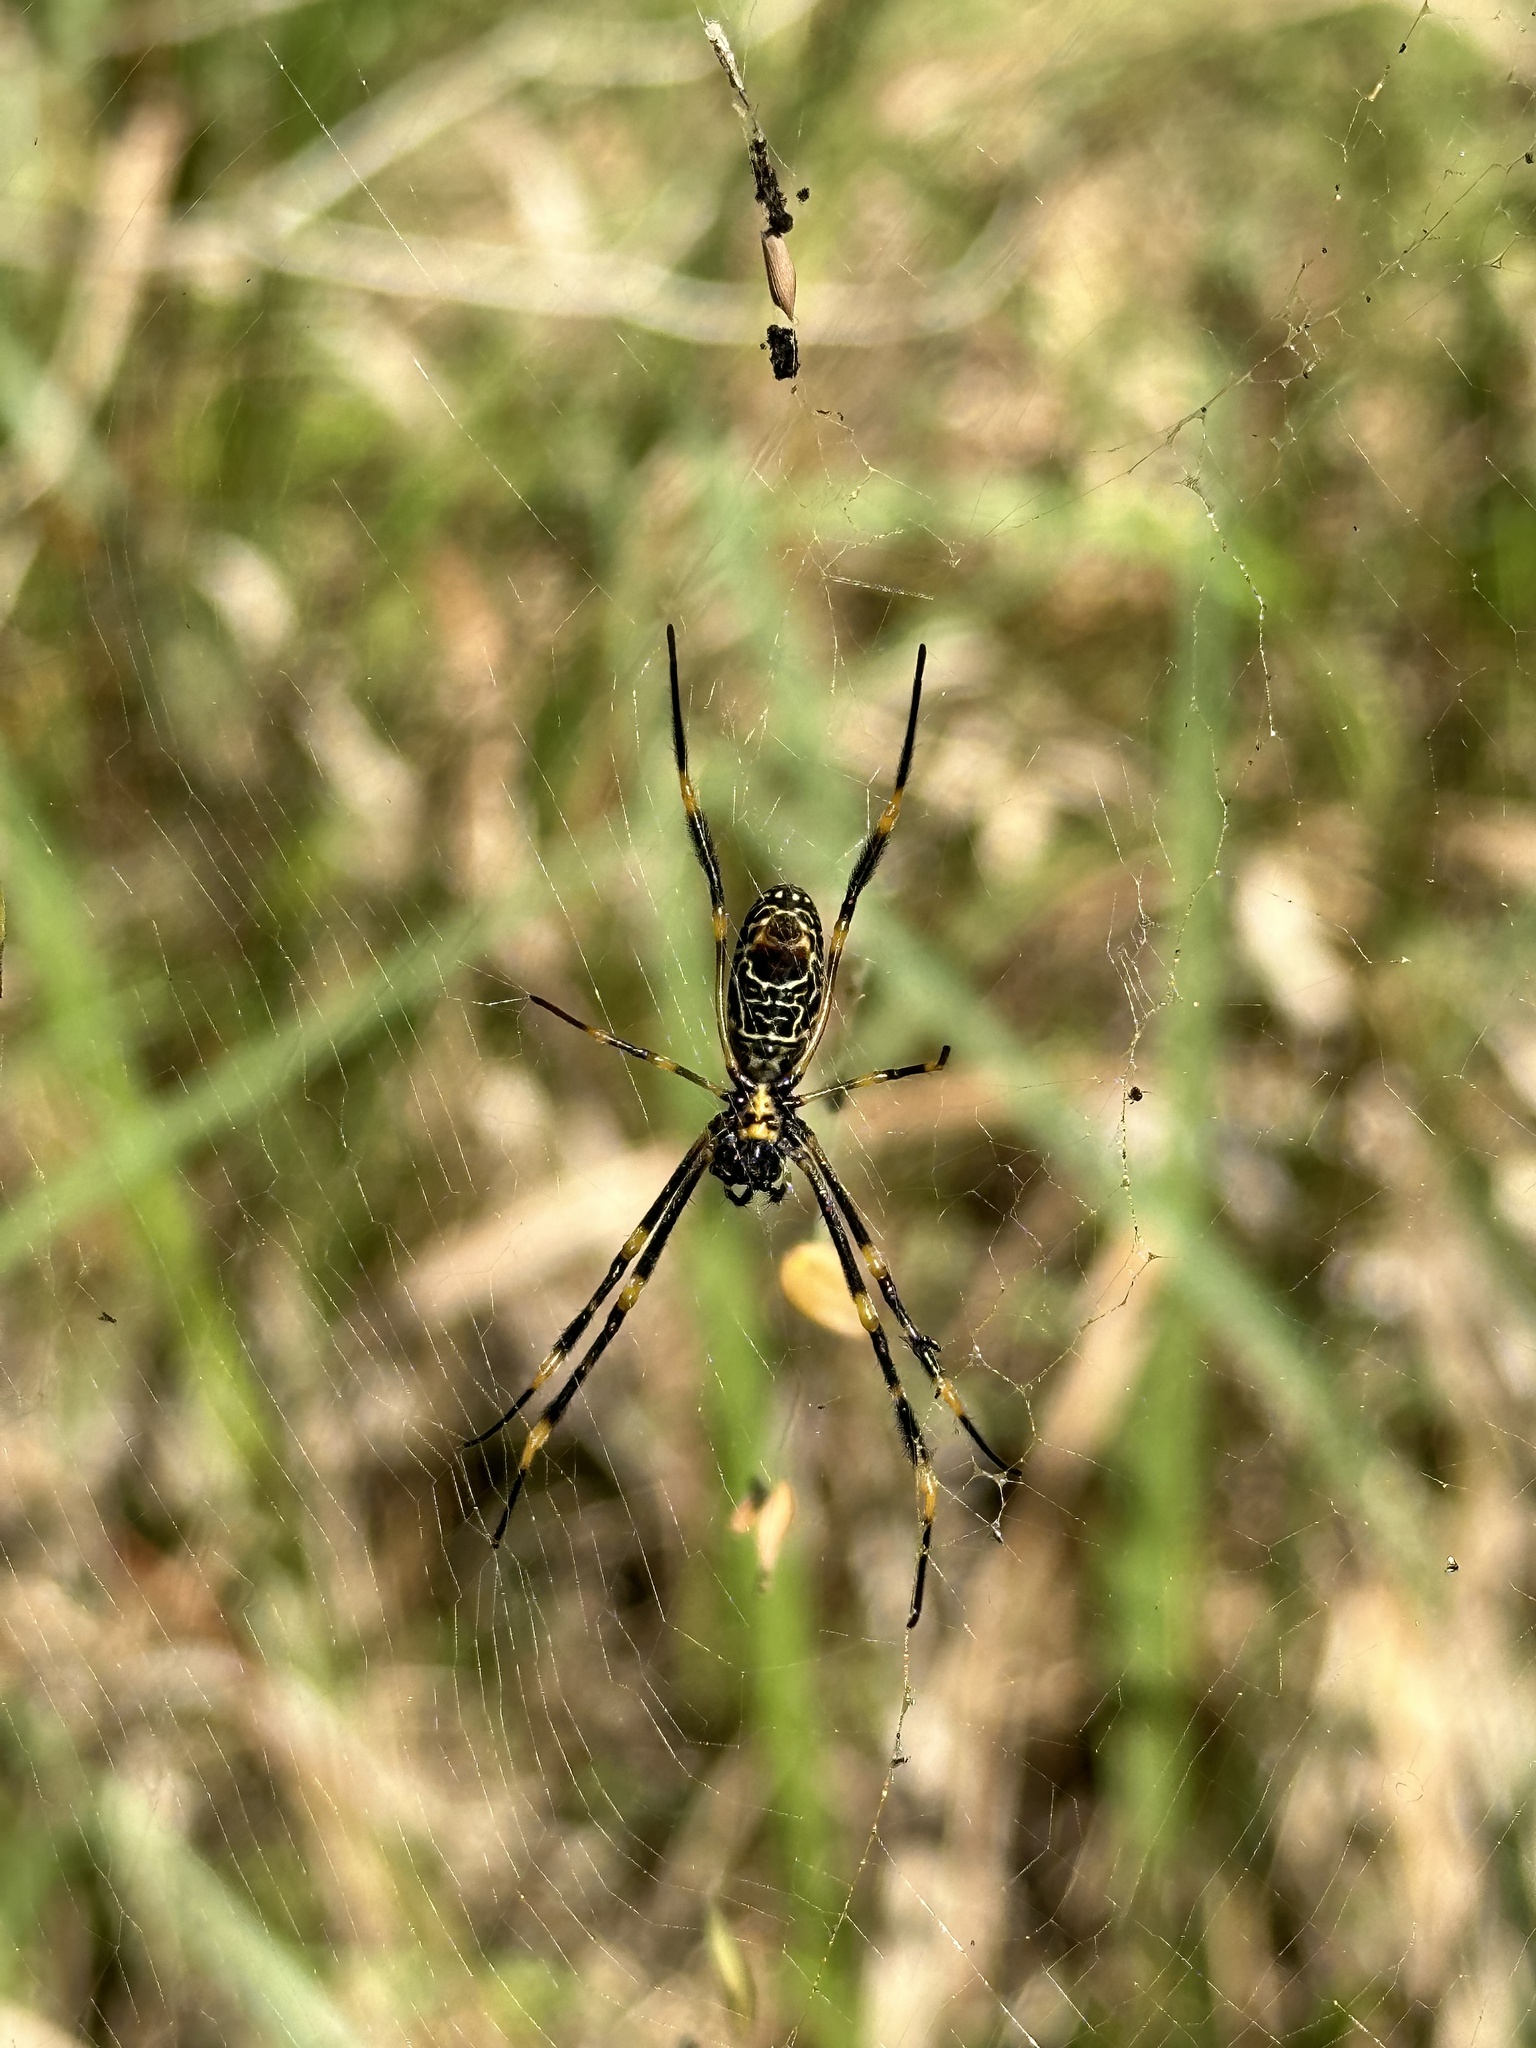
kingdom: Animalia
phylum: Arthropoda
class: Arachnida
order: Araneae
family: Araneidae
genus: Trichonephila
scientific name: Trichonephila plumipes
